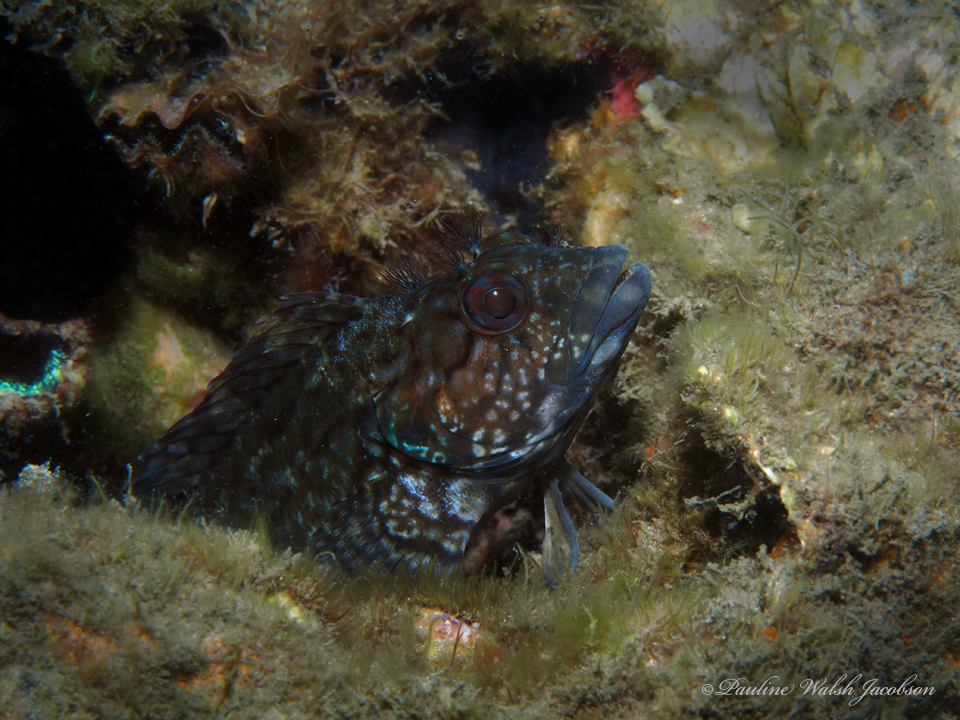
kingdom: Animalia
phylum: Chordata
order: Perciformes
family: Labrisomidae
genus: Labrisomus
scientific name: Labrisomus conditus
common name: Masquerader hairy blenny
